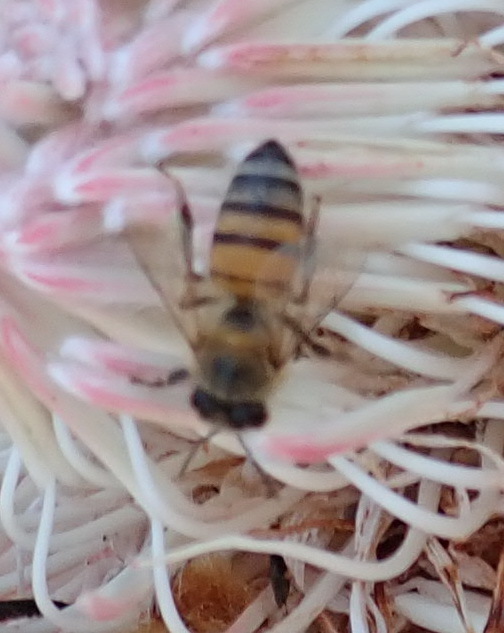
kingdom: Animalia
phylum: Arthropoda
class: Insecta
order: Hymenoptera
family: Apidae
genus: Apis
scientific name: Apis mellifera
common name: Honey bee
